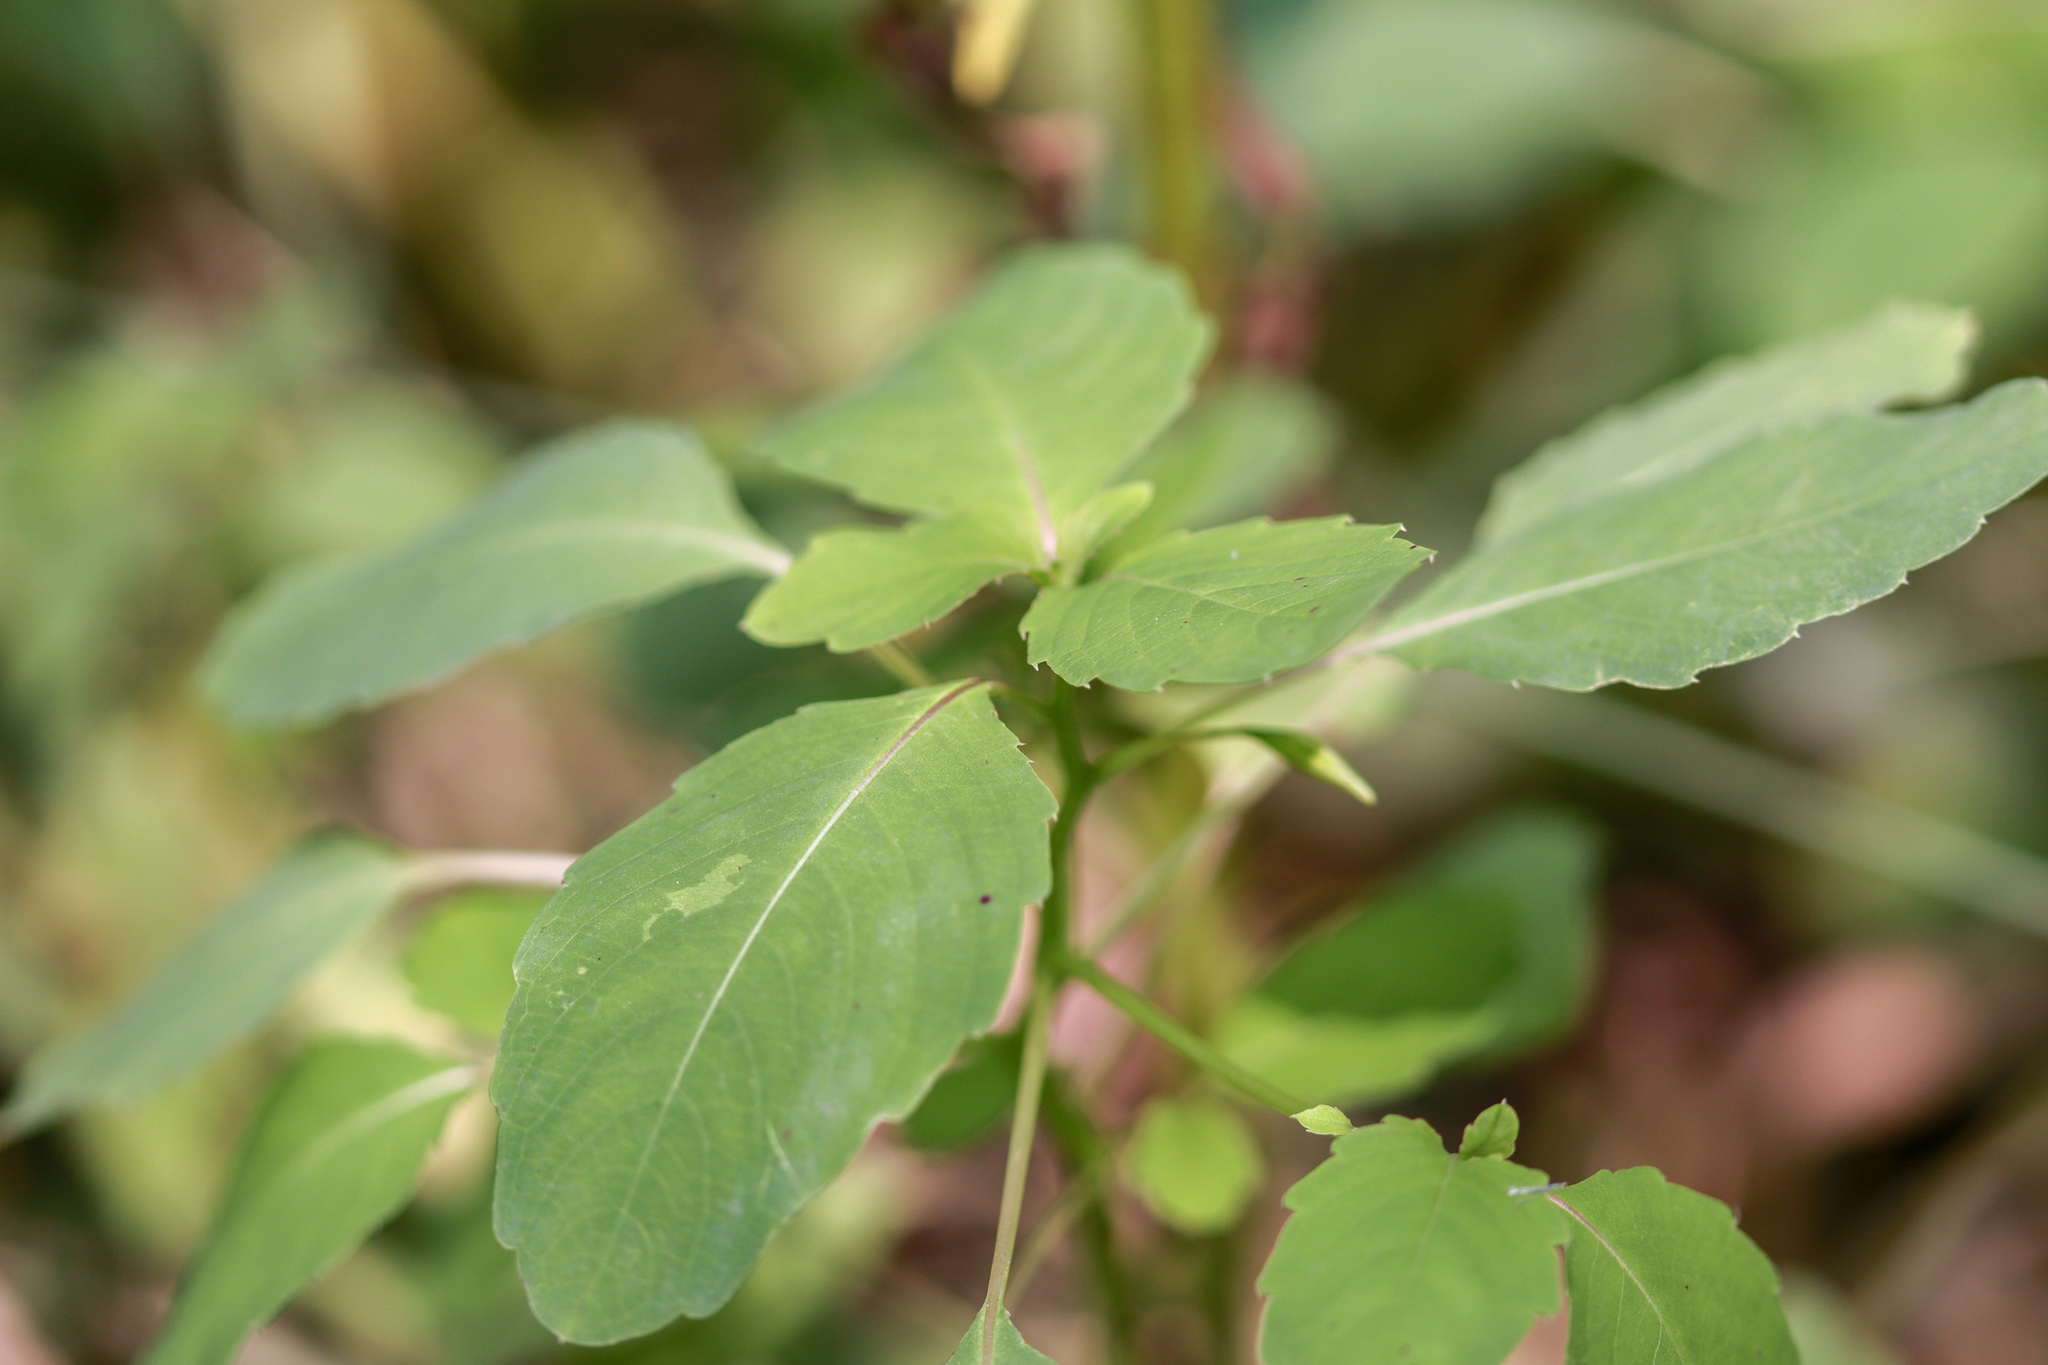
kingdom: Plantae
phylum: Tracheophyta
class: Magnoliopsida
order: Ericales
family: Balsaminaceae
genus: Impatiens
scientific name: Impatiens capensis
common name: Orange balsam
